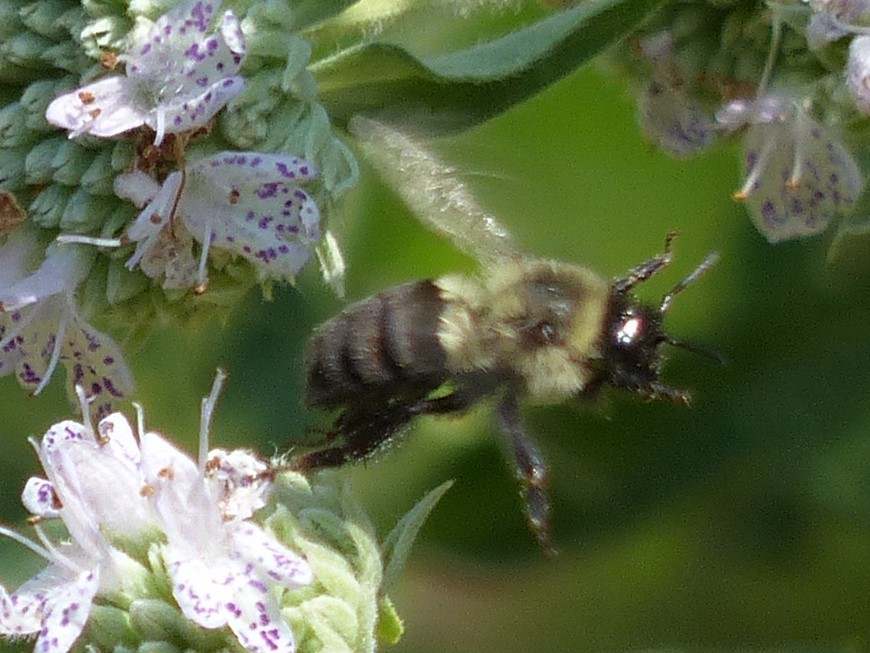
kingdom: Animalia
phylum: Arthropoda
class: Insecta
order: Hymenoptera
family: Apidae
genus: Bombus
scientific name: Bombus impatiens
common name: Common eastern bumble bee
